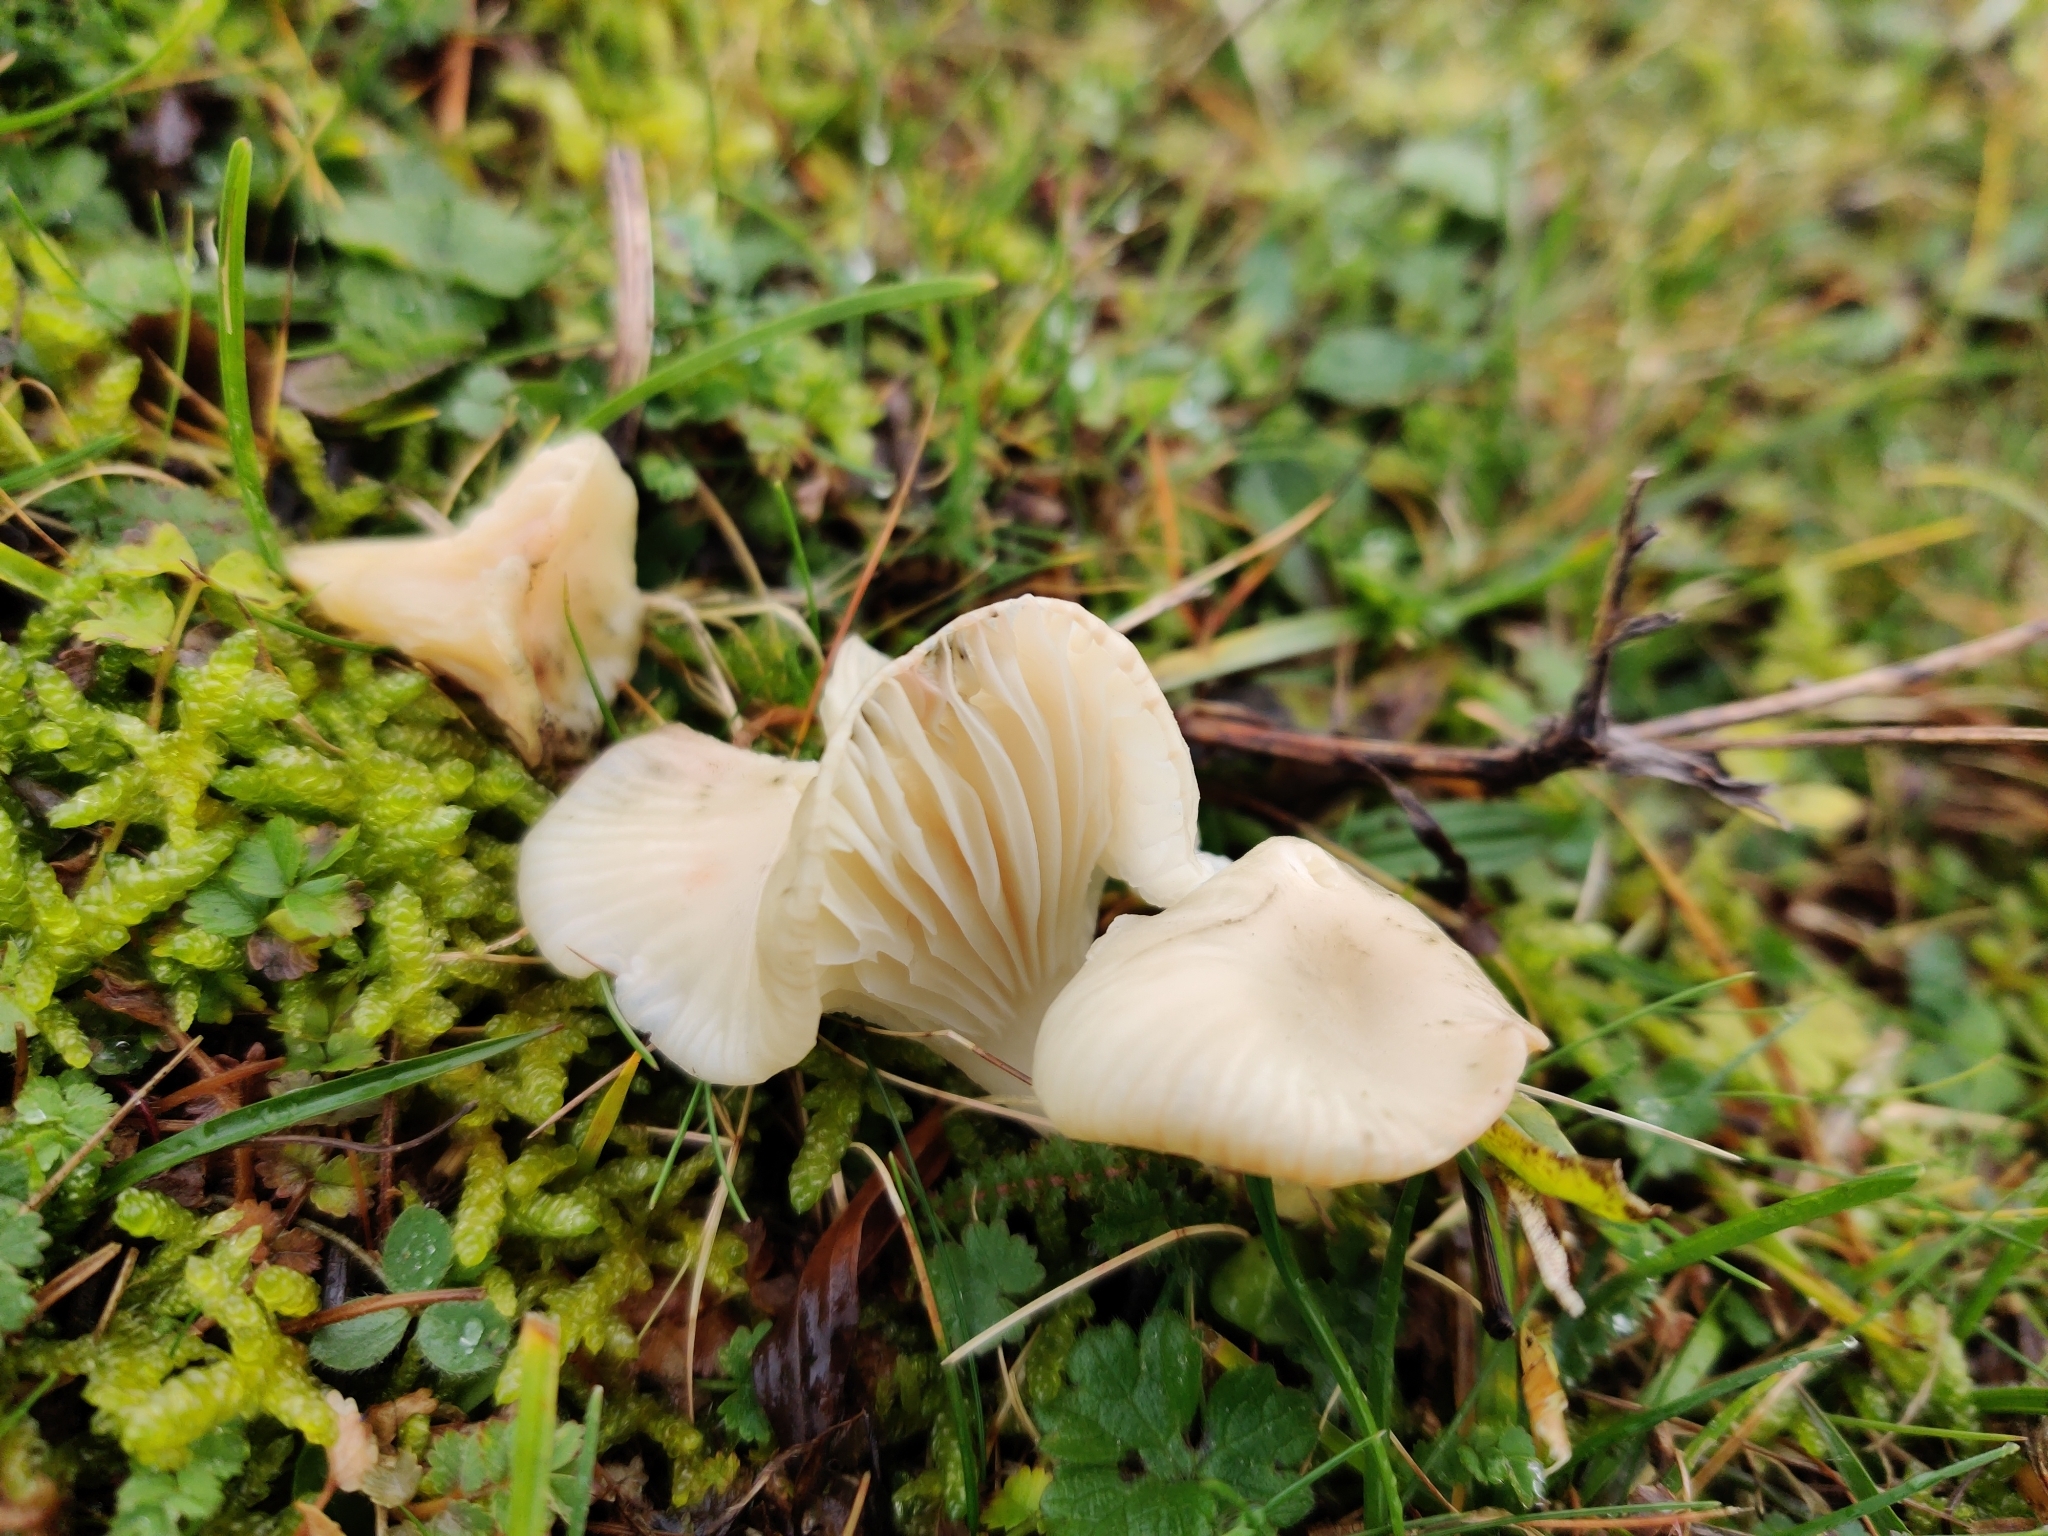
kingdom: Fungi
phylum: Basidiomycota
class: Agaricomycetes
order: Agaricales
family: Hygrophoraceae
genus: Cuphophyllus
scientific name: Cuphophyllus virgineus
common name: Snowy waxcap
